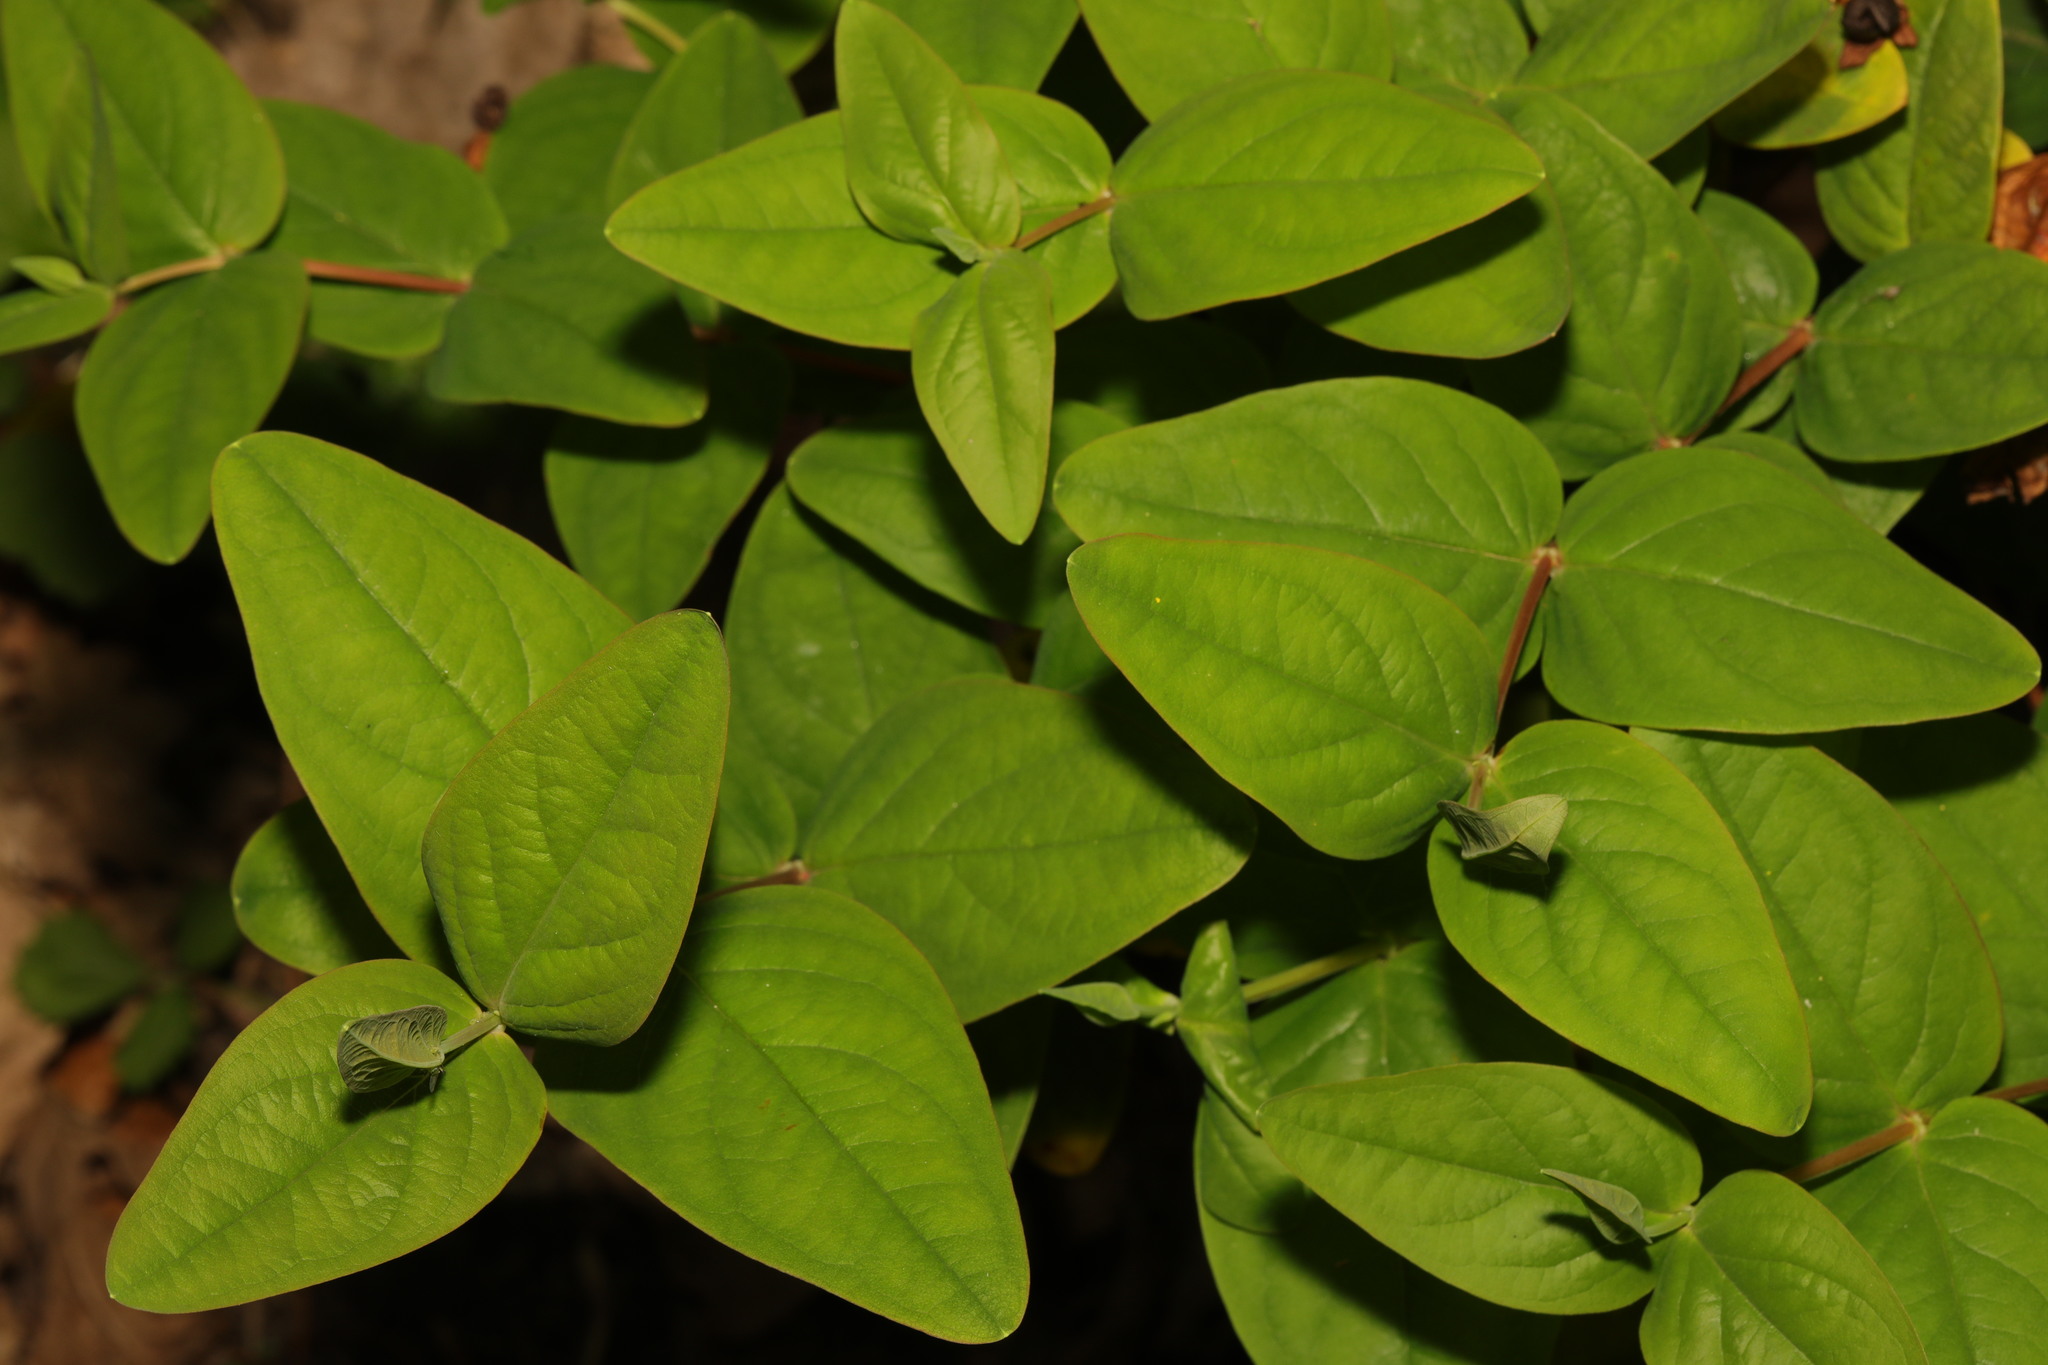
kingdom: Plantae
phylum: Tracheophyta
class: Magnoliopsida
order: Malpighiales
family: Hypericaceae
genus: Hypericum
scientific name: Hypericum androsaemum
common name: Sweet-amber
